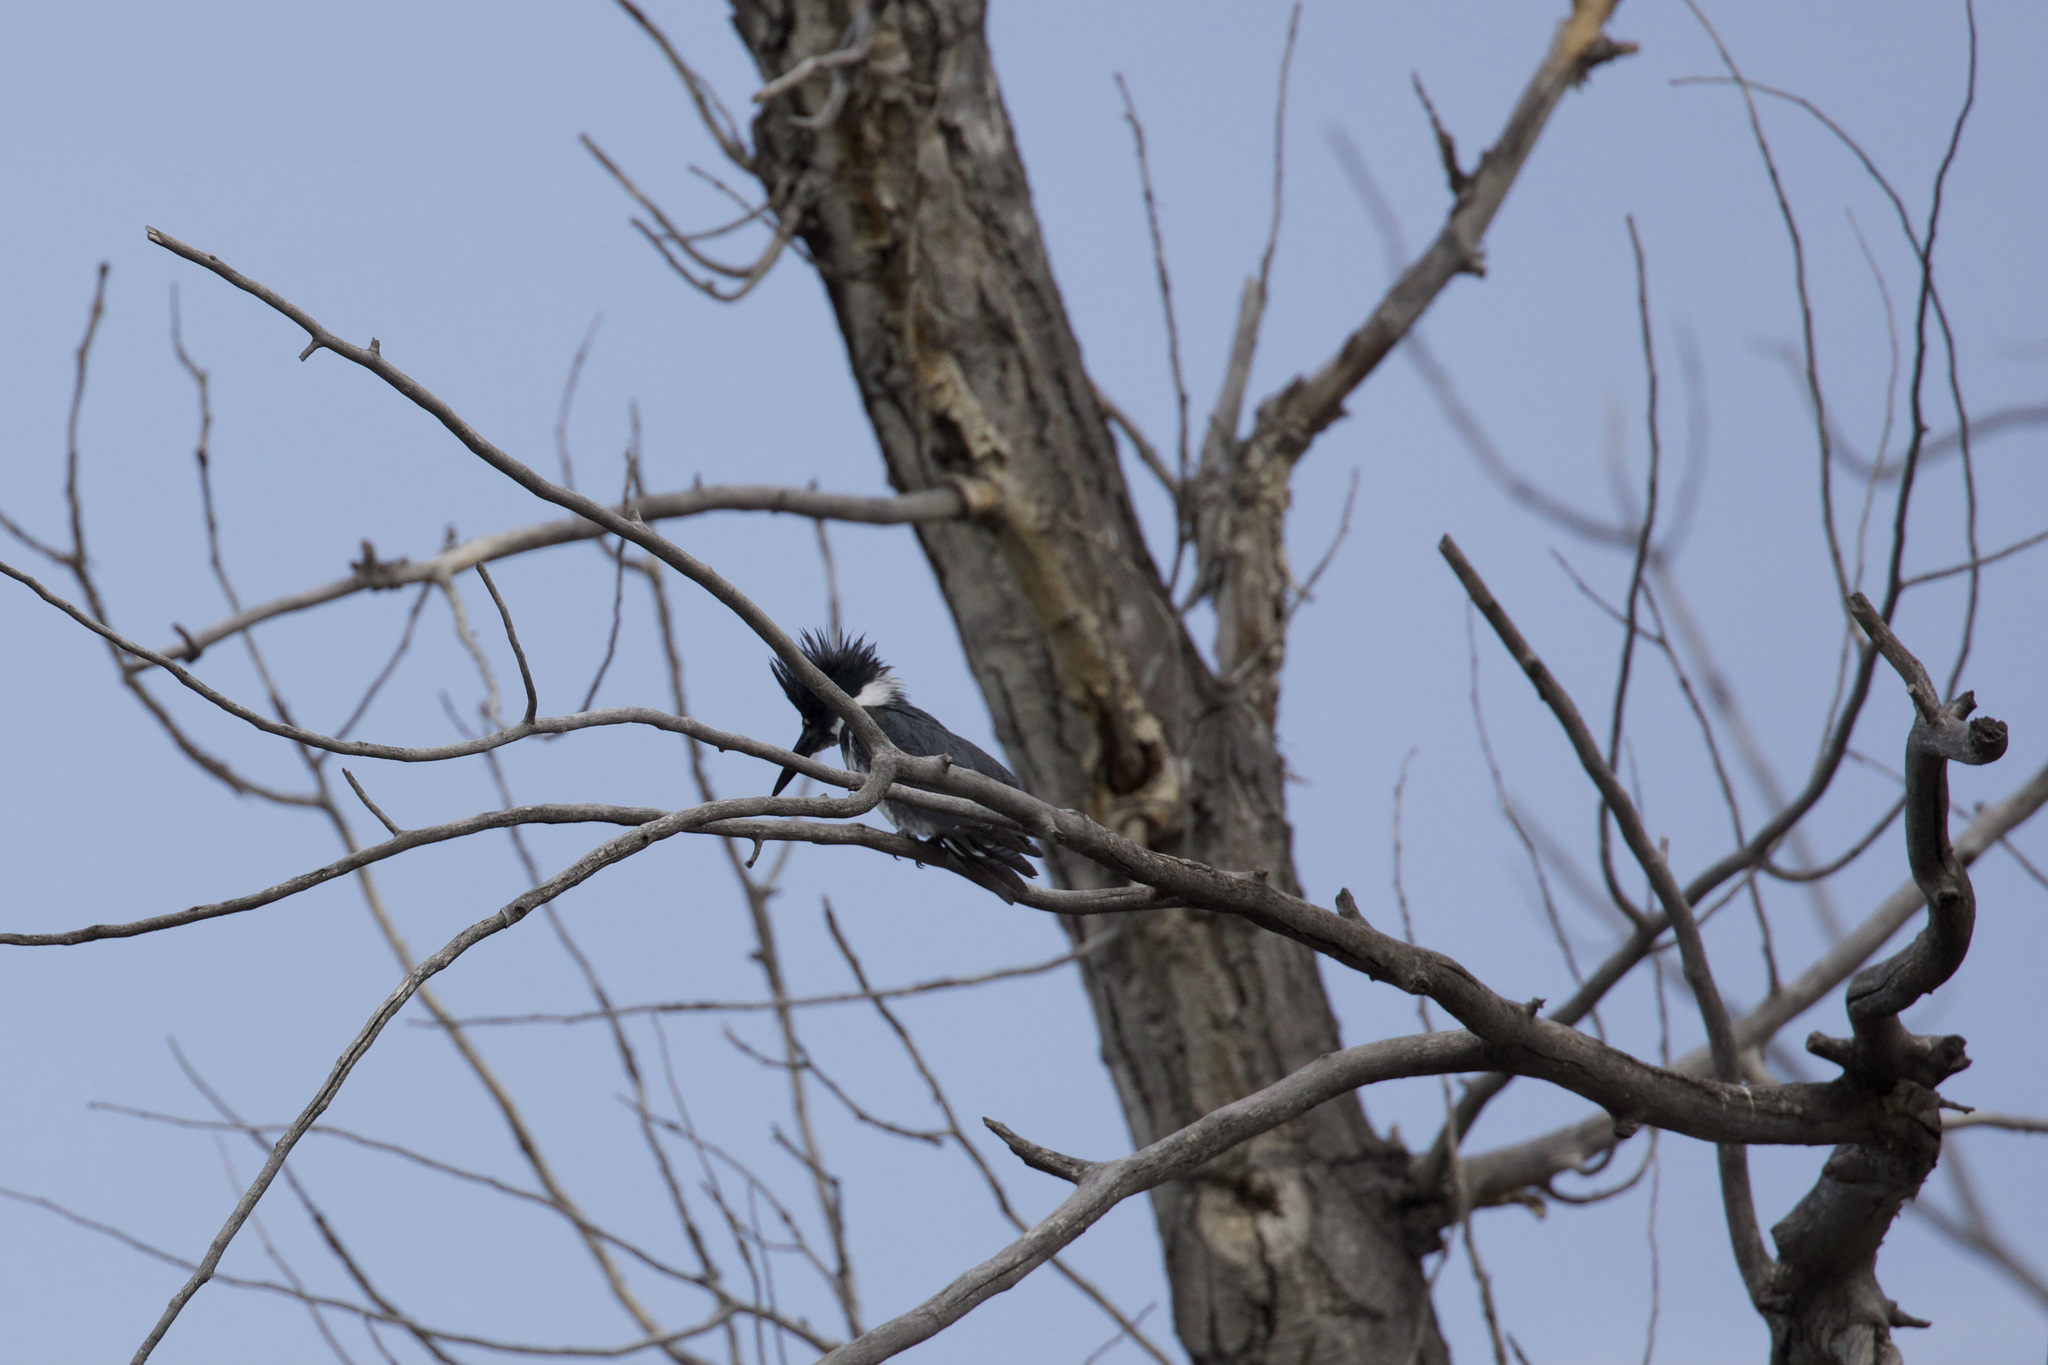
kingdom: Animalia
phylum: Chordata
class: Aves
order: Coraciiformes
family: Alcedinidae
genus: Megaceryle
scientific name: Megaceryle alcyon
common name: Belted kingfisher
